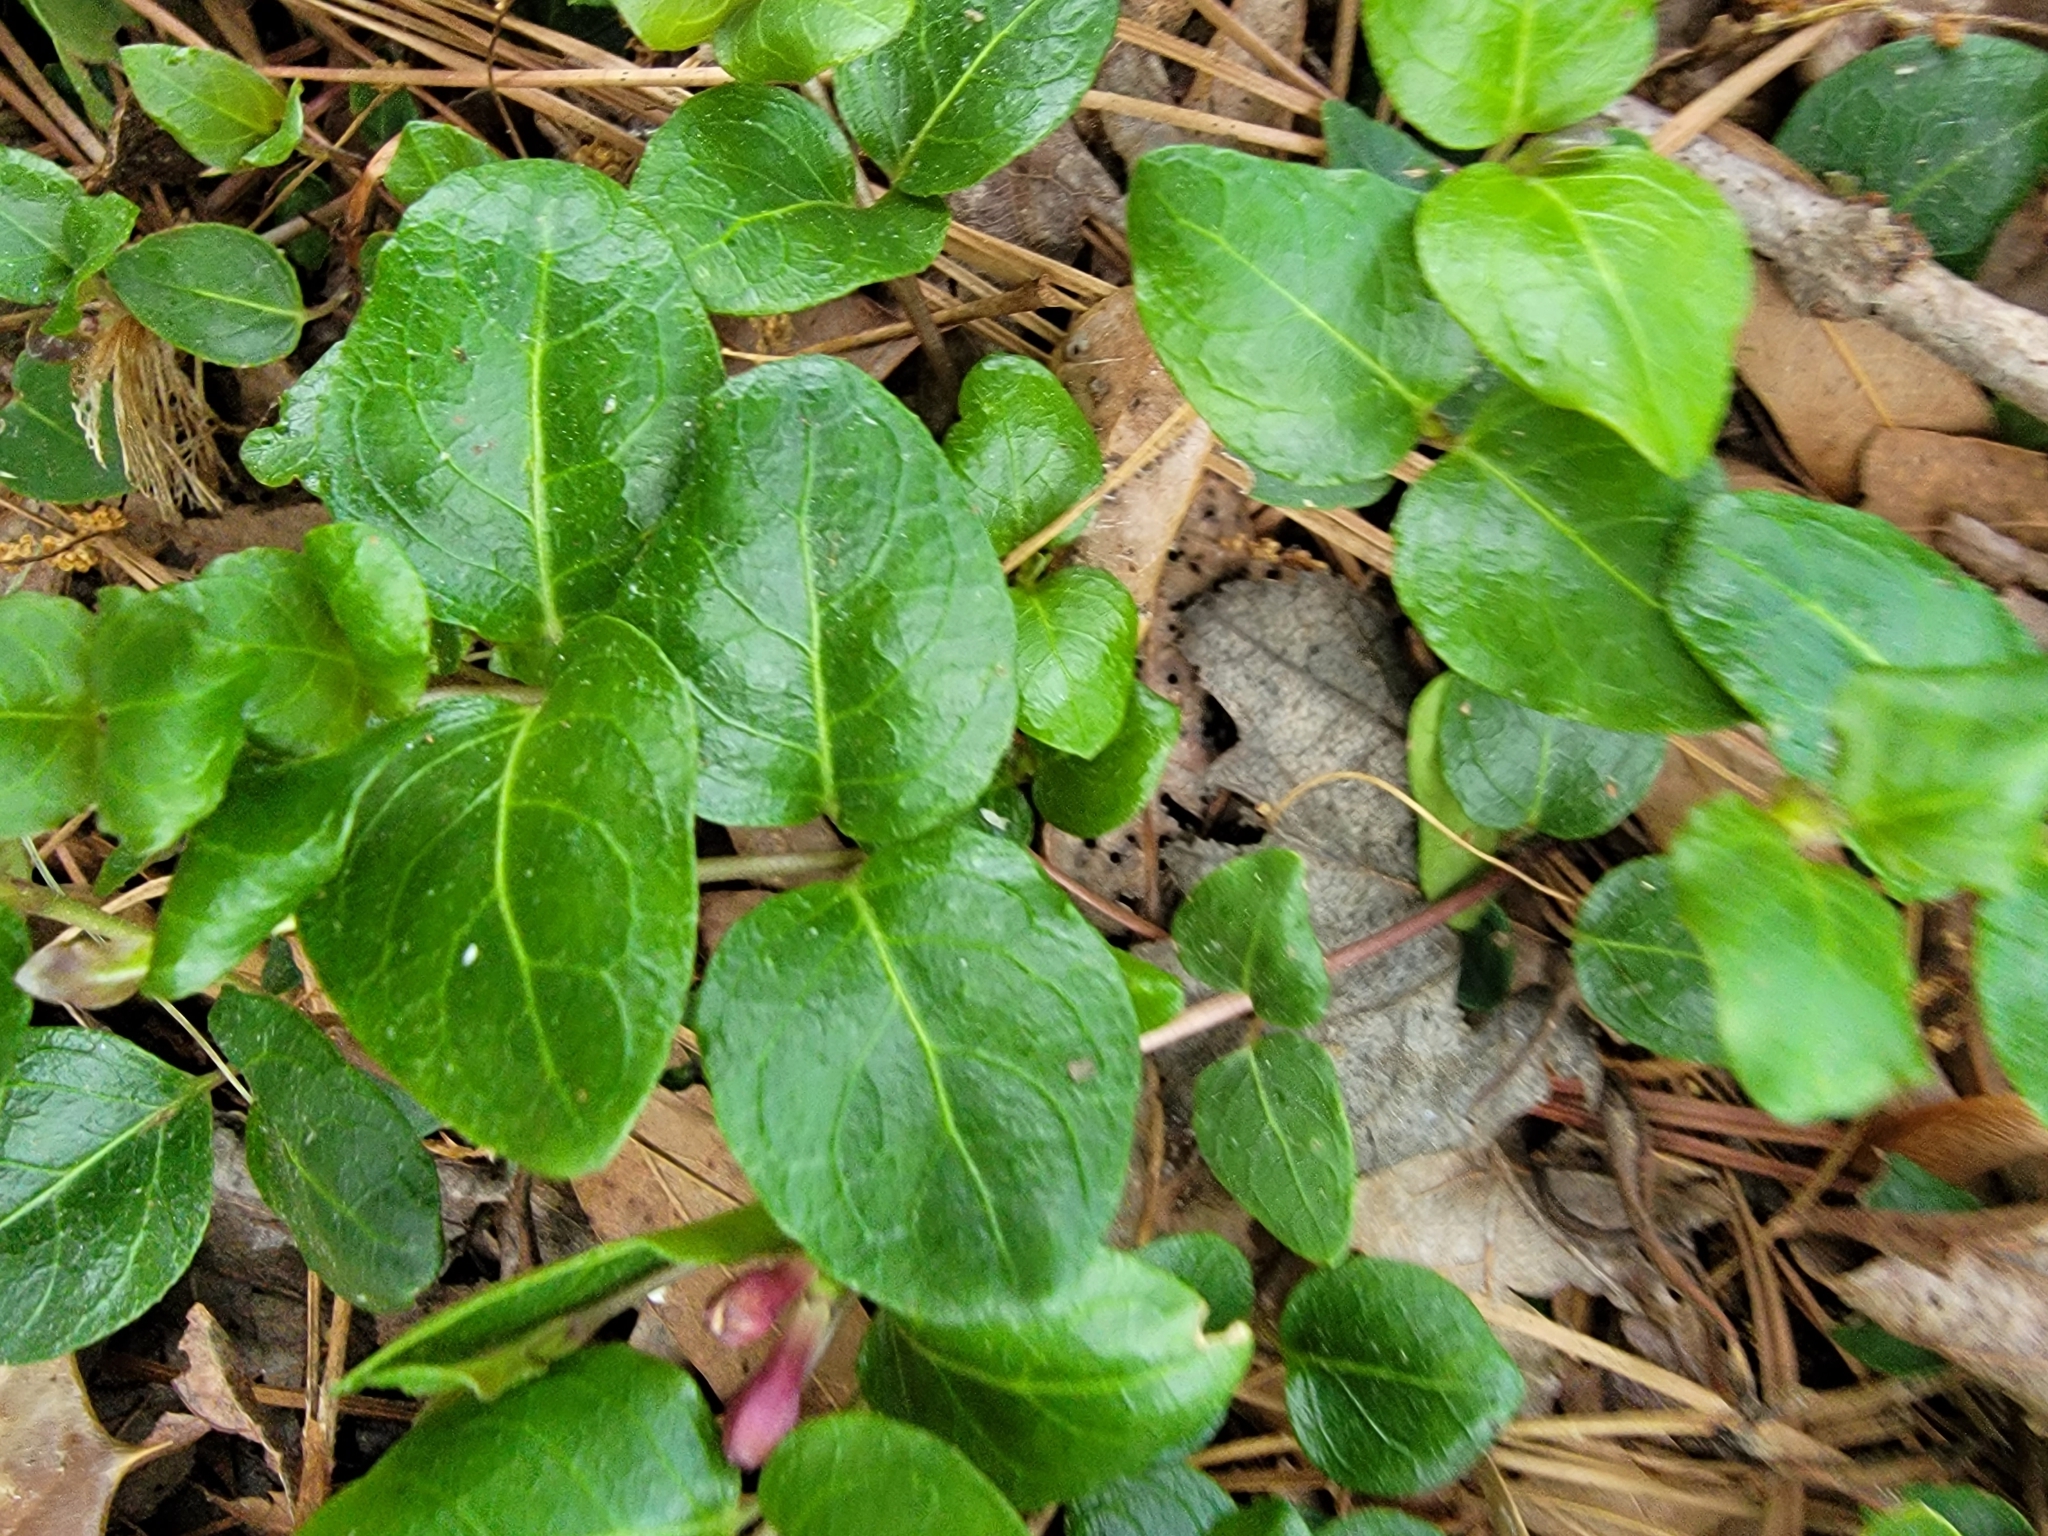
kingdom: Plantae
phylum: Tracheophyta
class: Magnoliopsida
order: Gentianales
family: Rubiaceae
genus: Mitchella
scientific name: Mitchella repens
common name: Partridge-berry
